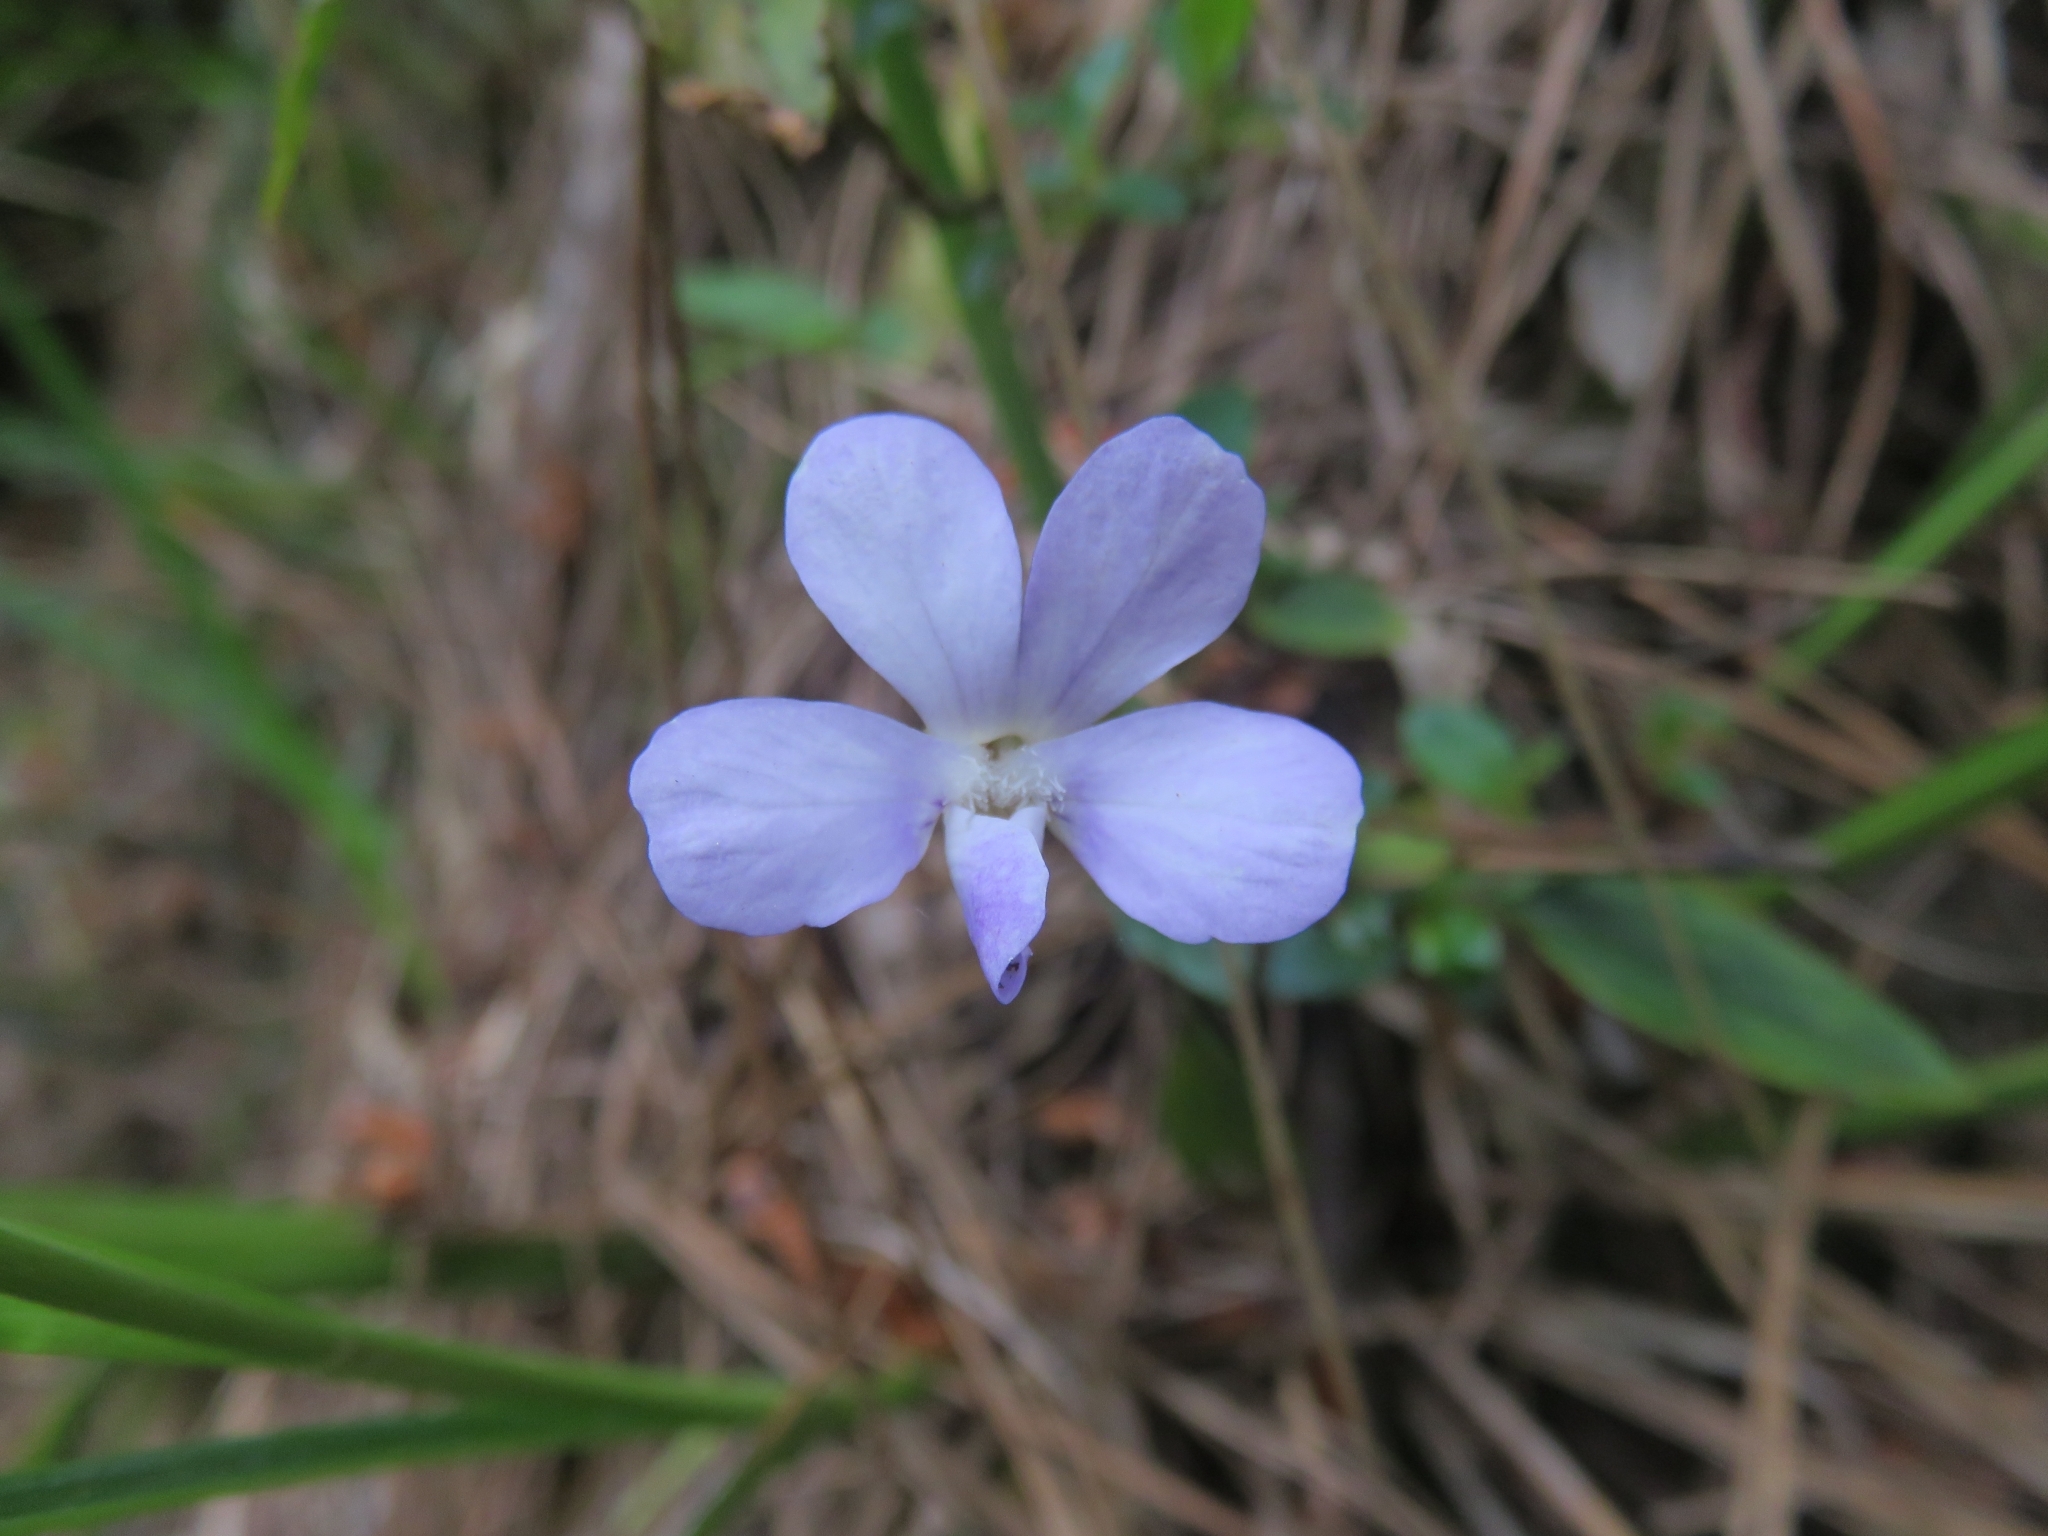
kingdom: Plantae
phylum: Tracheophyta
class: Magnoliopsida
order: Malpighiales
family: Violaceae
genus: Viola
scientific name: Viola portalesia
